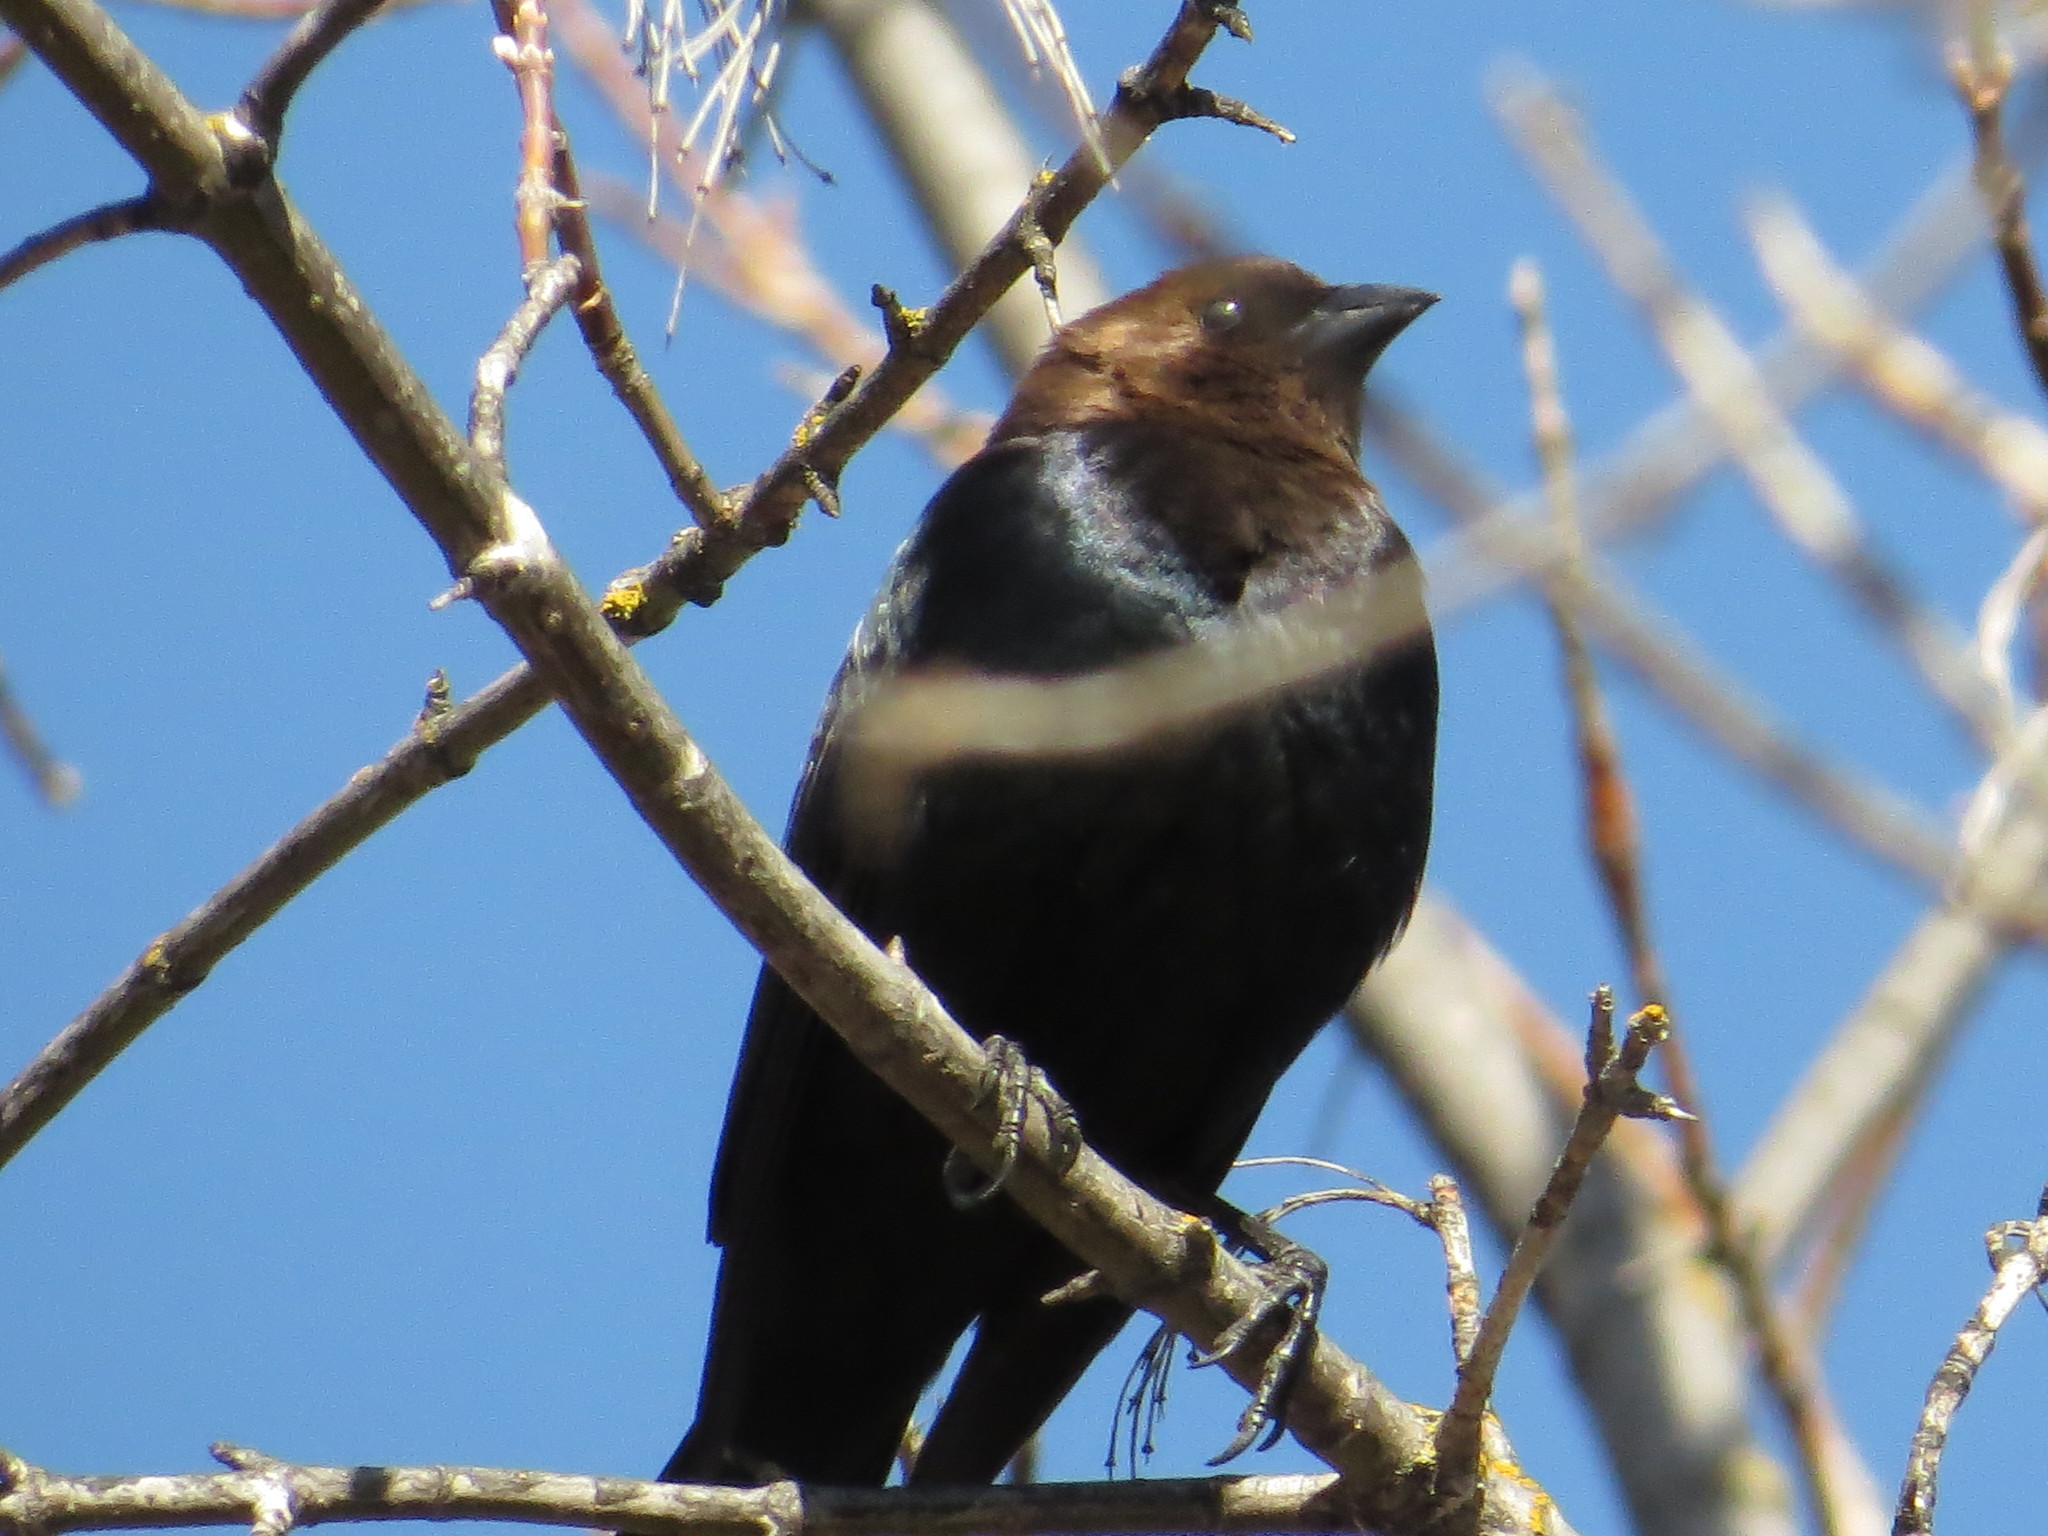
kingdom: Animalia
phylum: Chordata
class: Aves
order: Passeriformes
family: Icteridae
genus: Molothrus
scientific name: Molothrus ater
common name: Brown-headed cowbird
